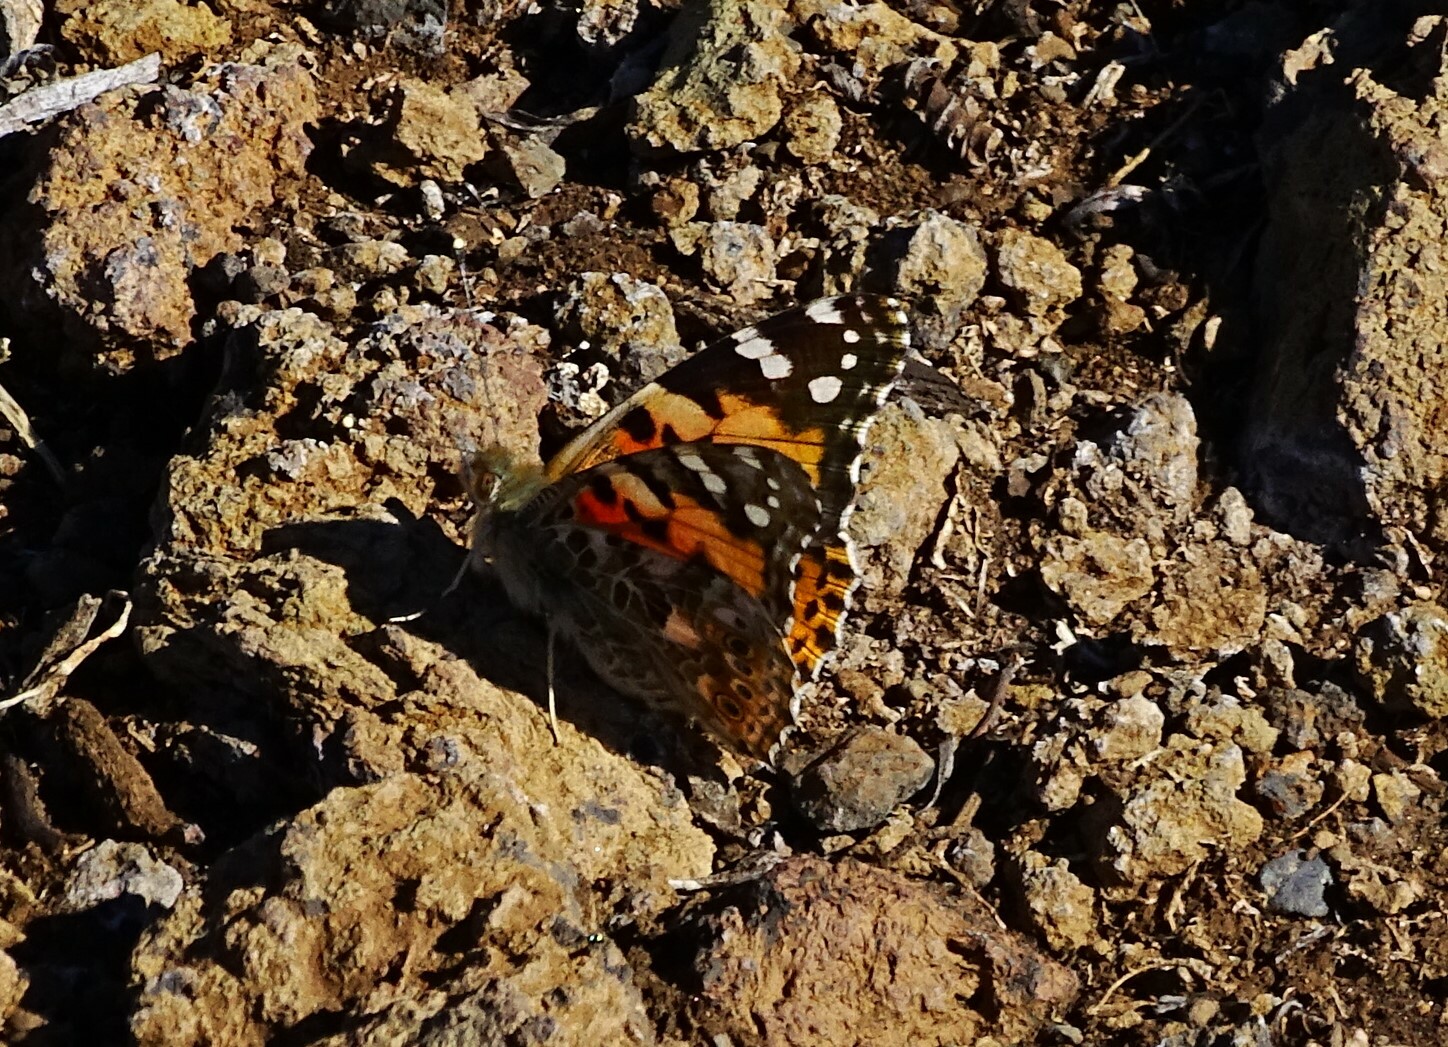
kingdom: Animalia
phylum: Arthropoda
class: Insecta
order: Lepidoptera
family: Nymphalidae
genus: Vanessa
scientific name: Vanessa cardui
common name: Painted lady
